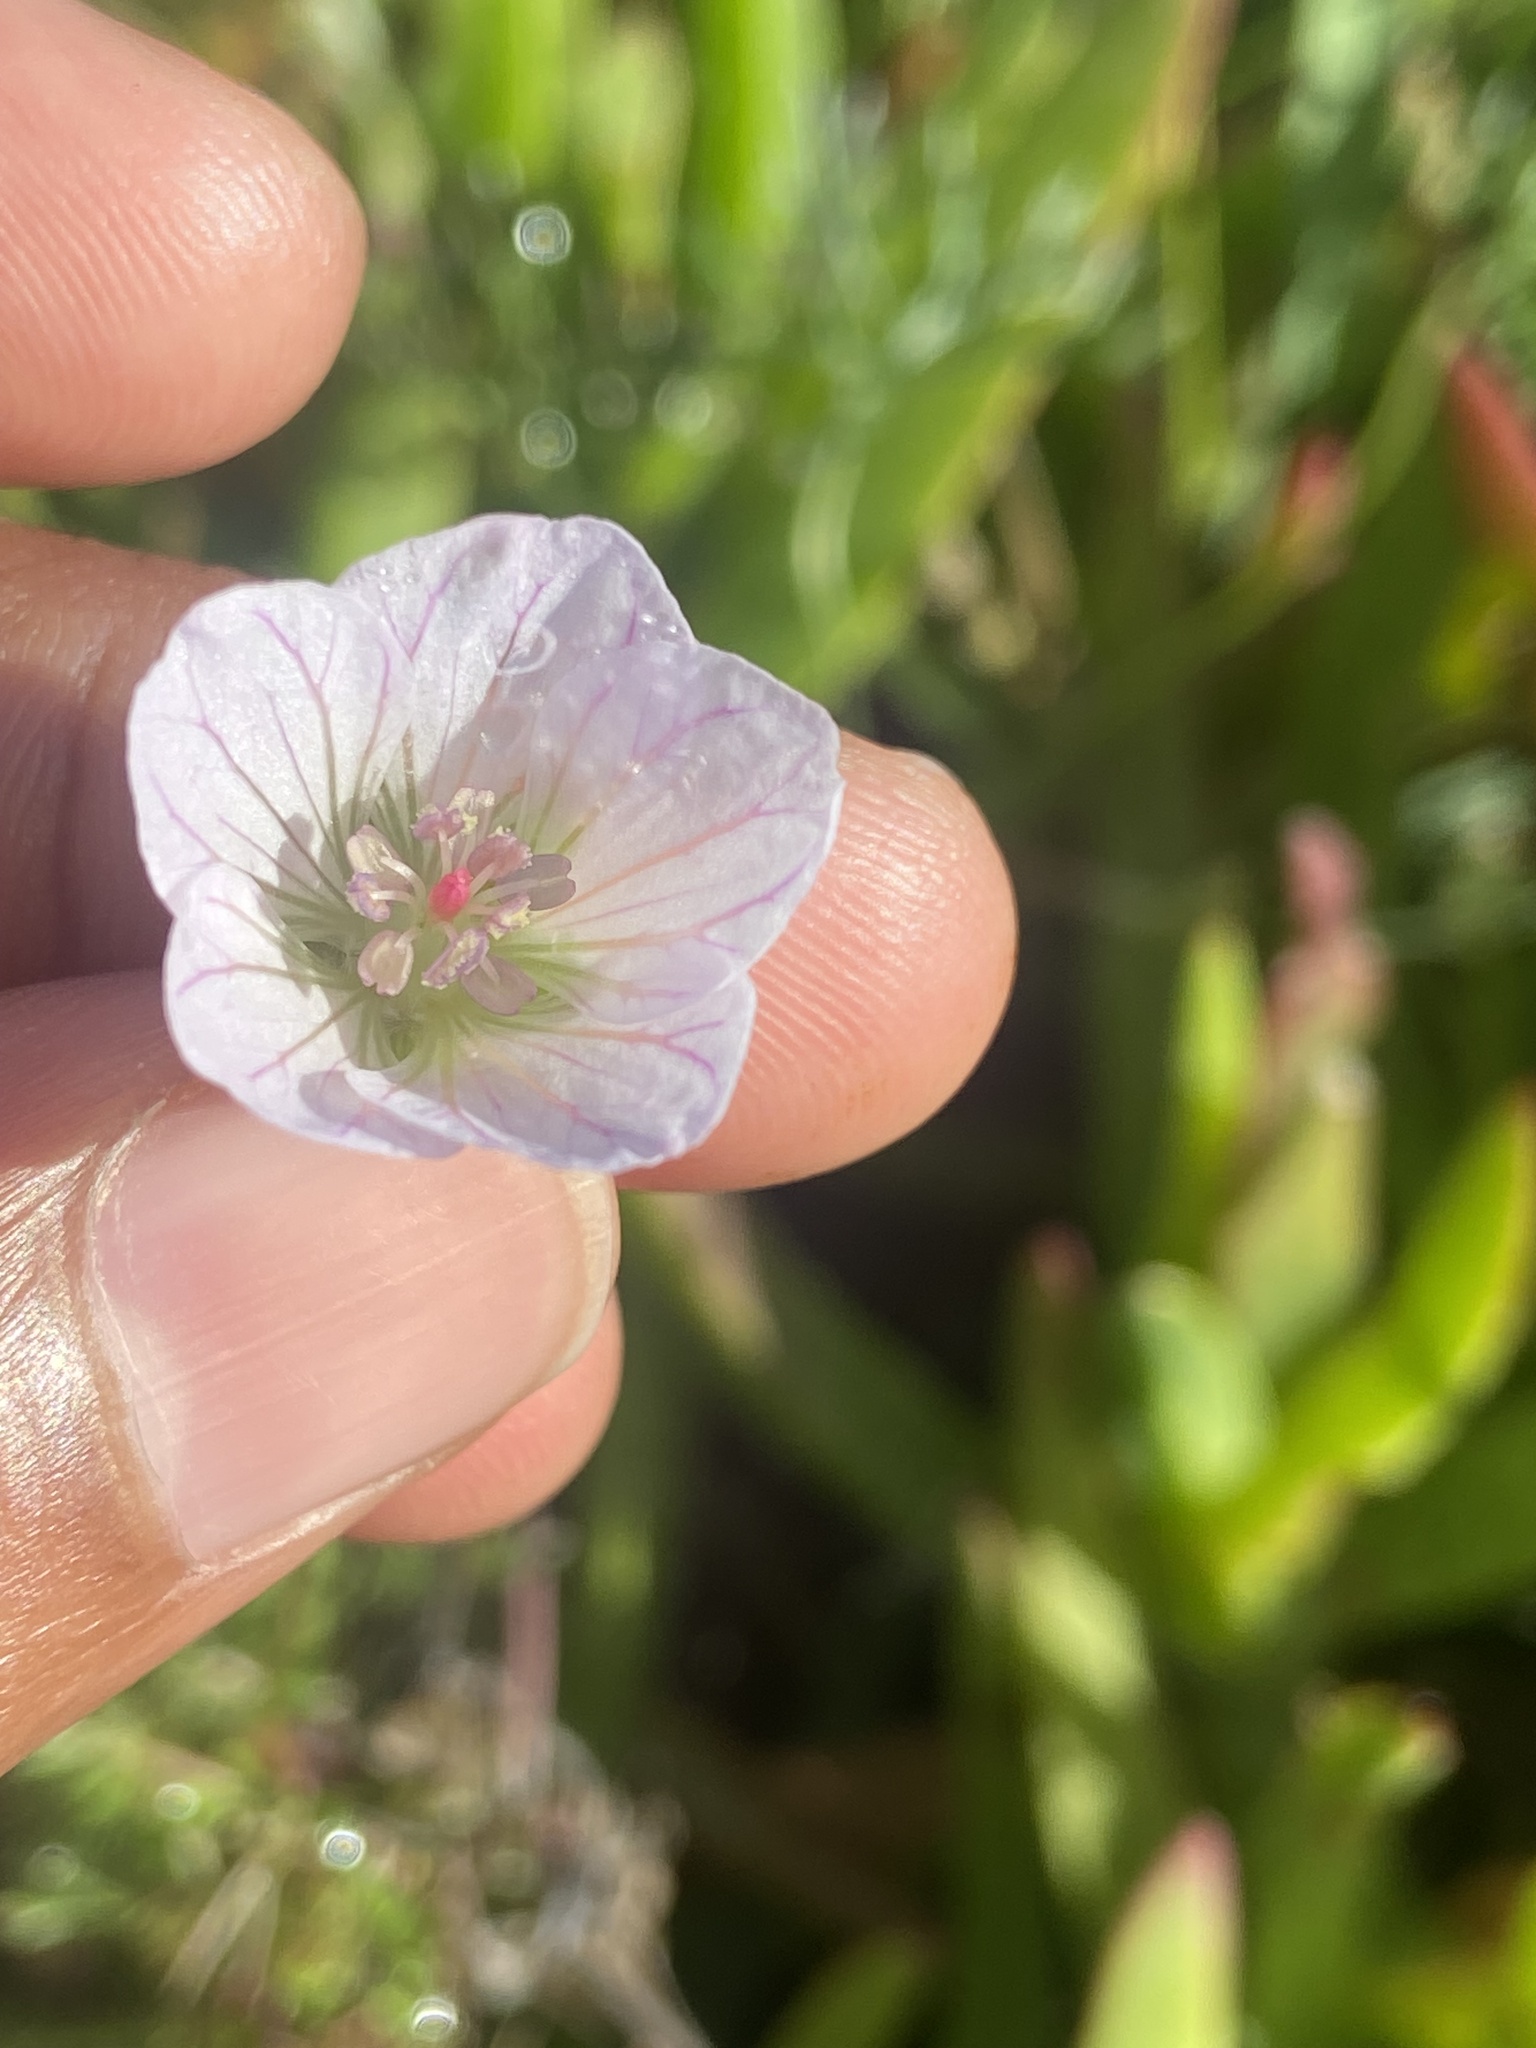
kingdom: Plantae
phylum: Tracheophyta
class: Magnoliopsida
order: Geraniales
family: Geraniaceae
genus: Geranium
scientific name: Geranium incanum
